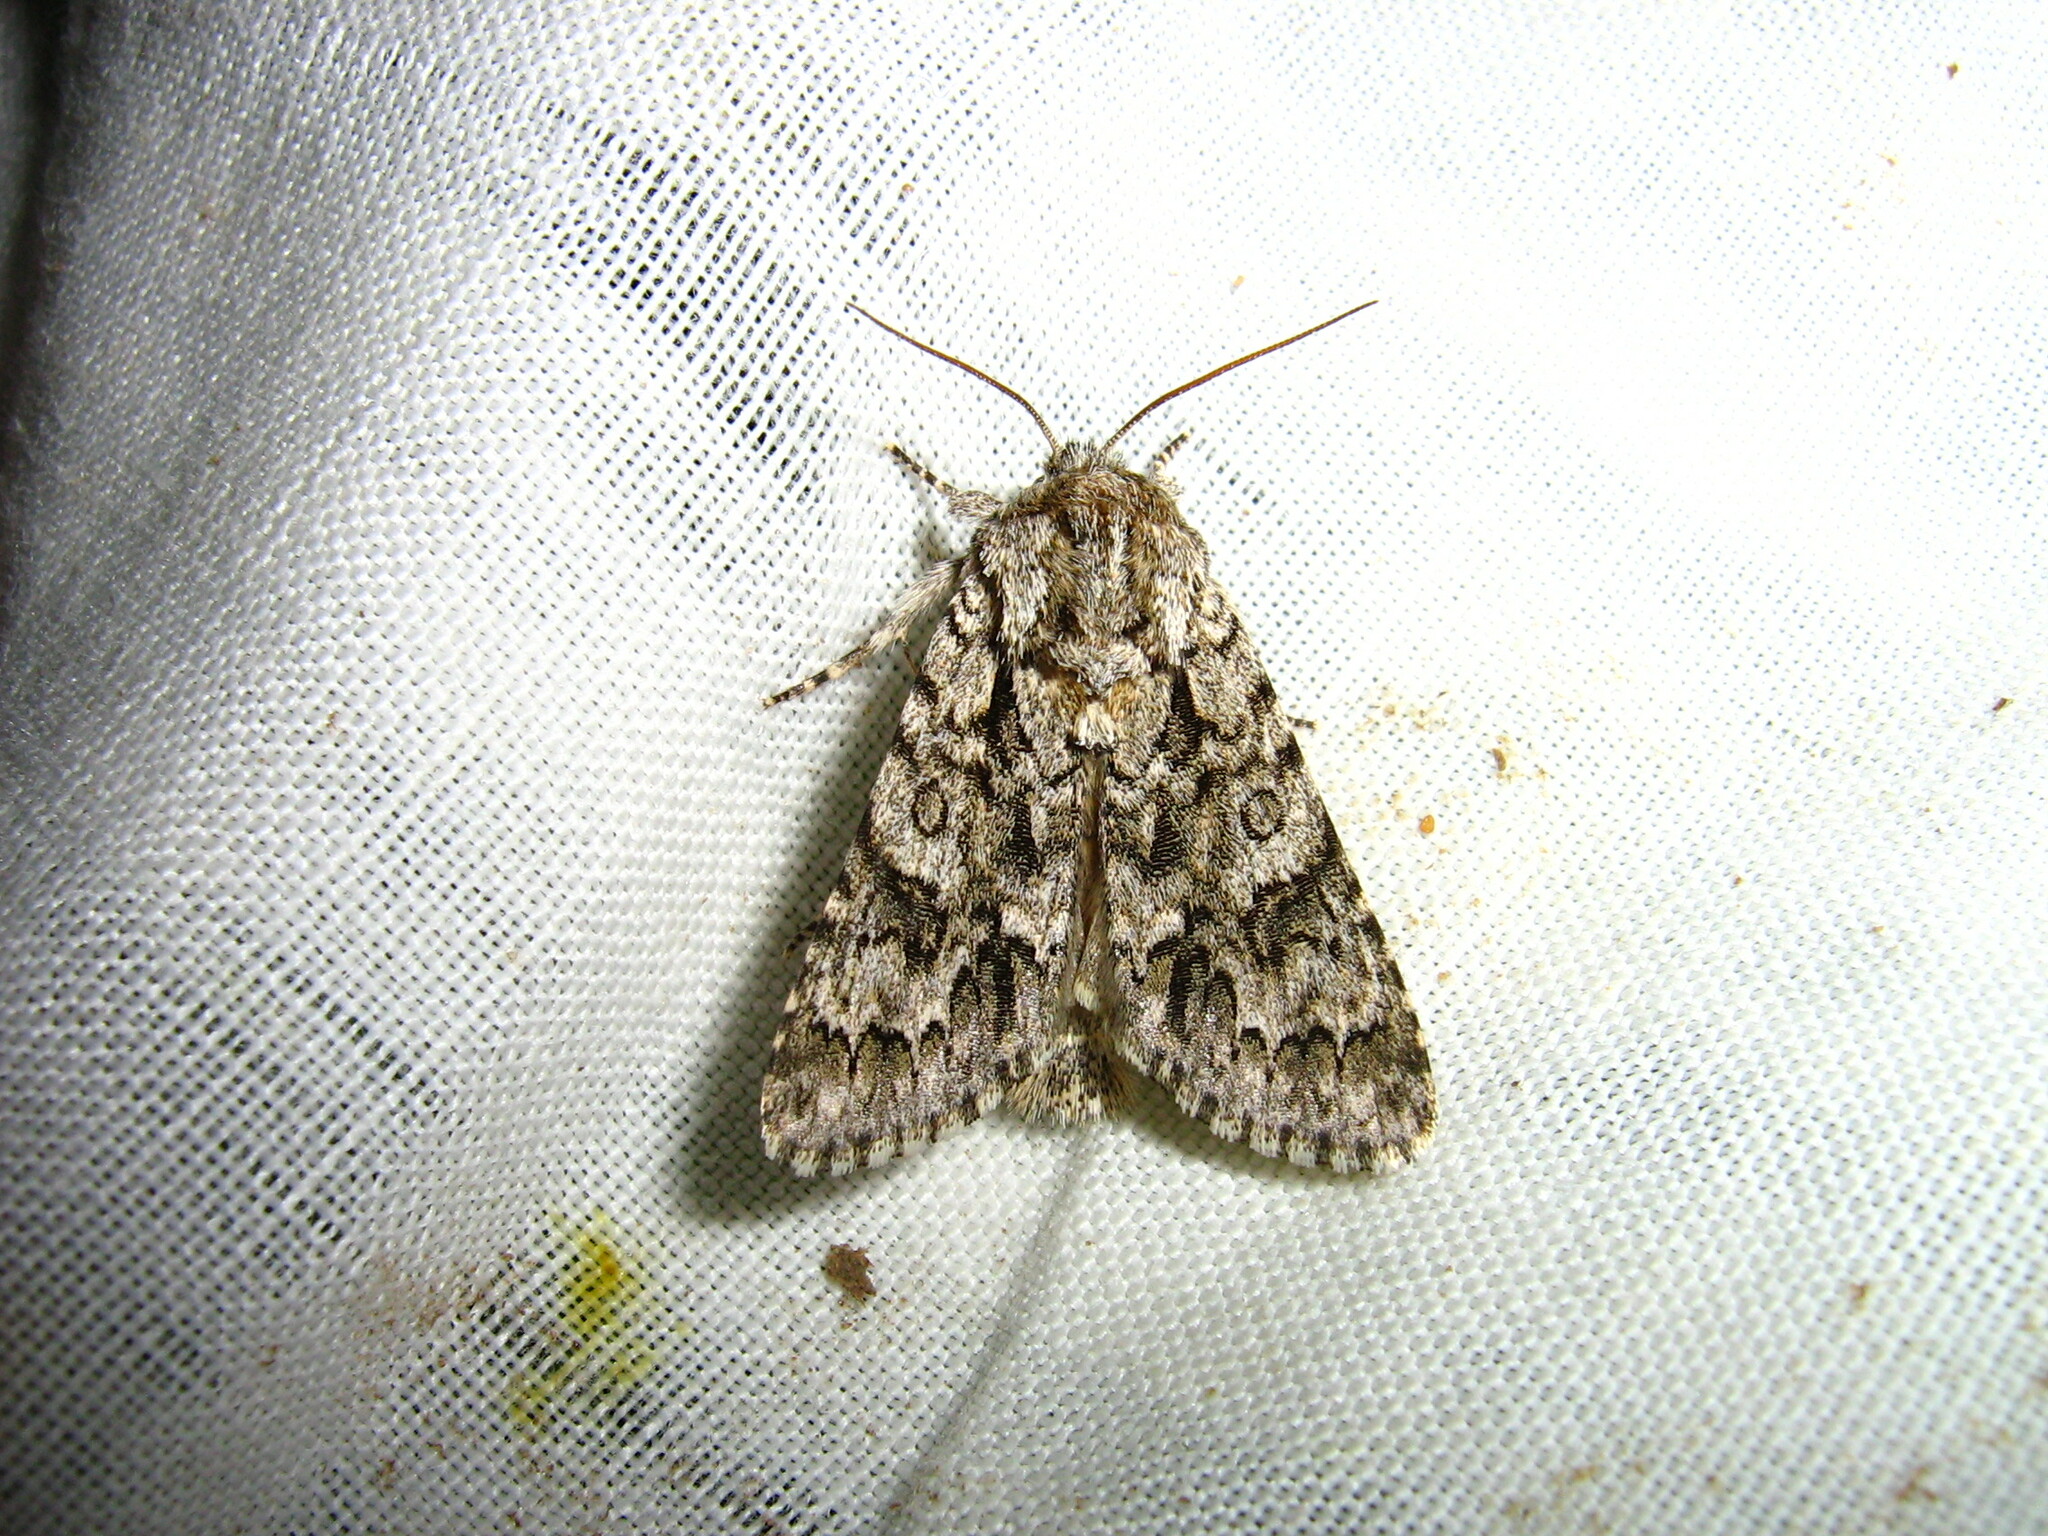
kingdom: Animalia
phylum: Arthropoda
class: Insecta
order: Lepidoptera
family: Noctuidae
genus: Acronicta
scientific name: Acronicta auricoma
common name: Scarce dagger
